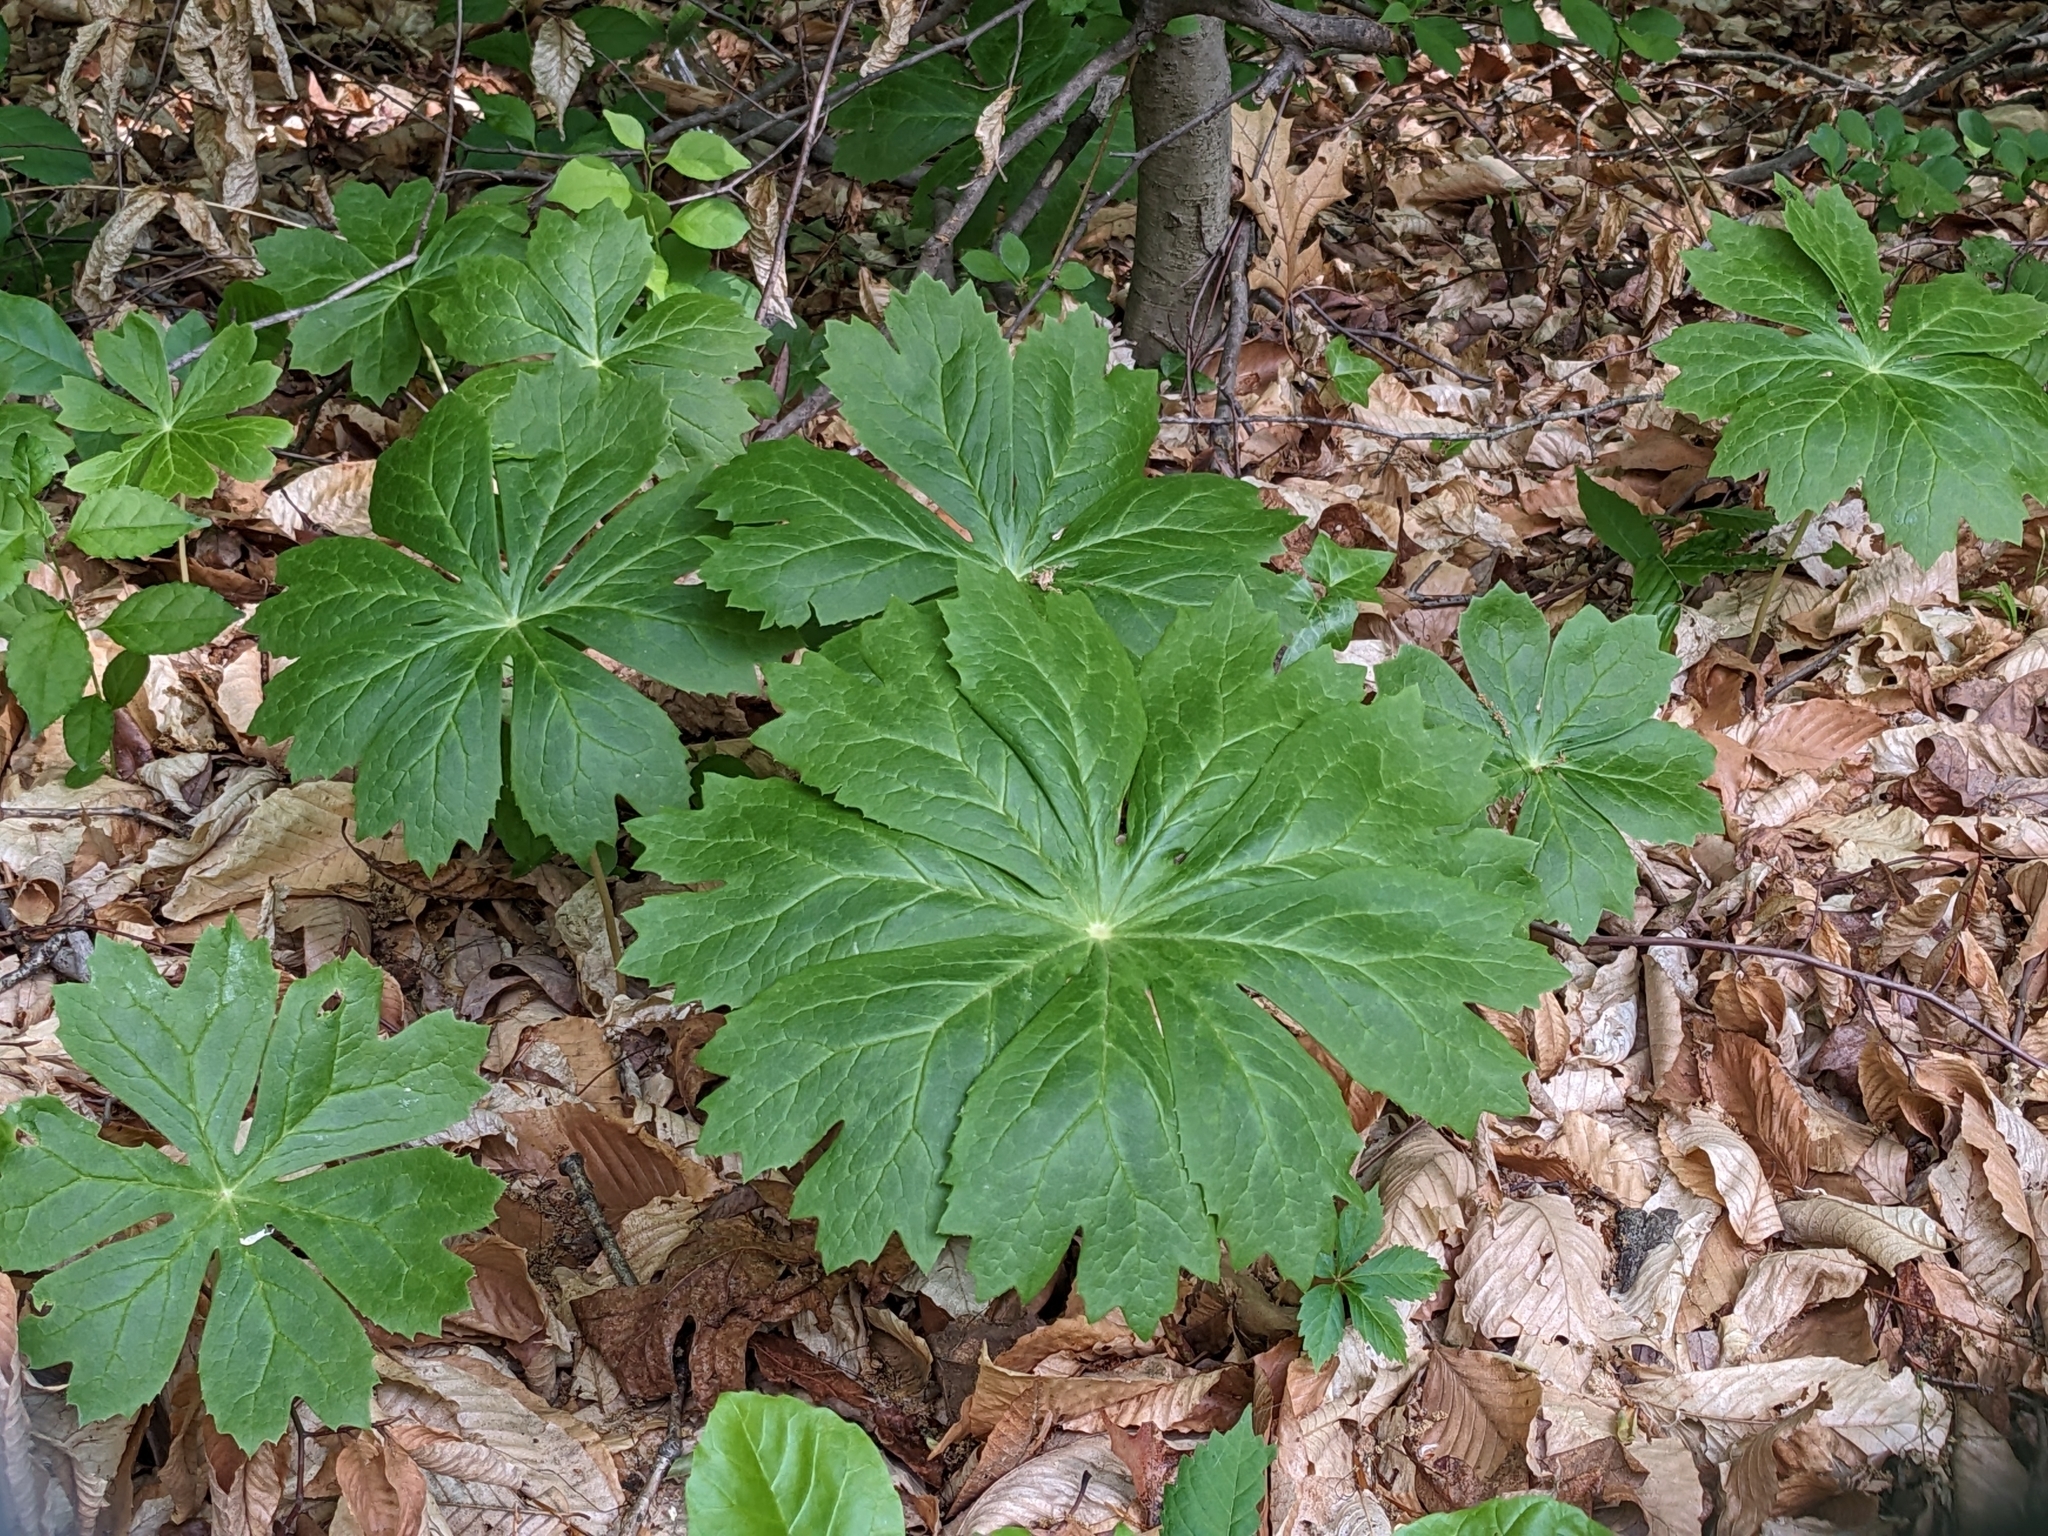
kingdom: Plantae
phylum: Tracheophyta
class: Magnoliopsida
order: Ranunculales
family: Berberidaceae
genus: Podophyllum
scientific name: Podophyllum peltatum
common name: Wild mandrake
